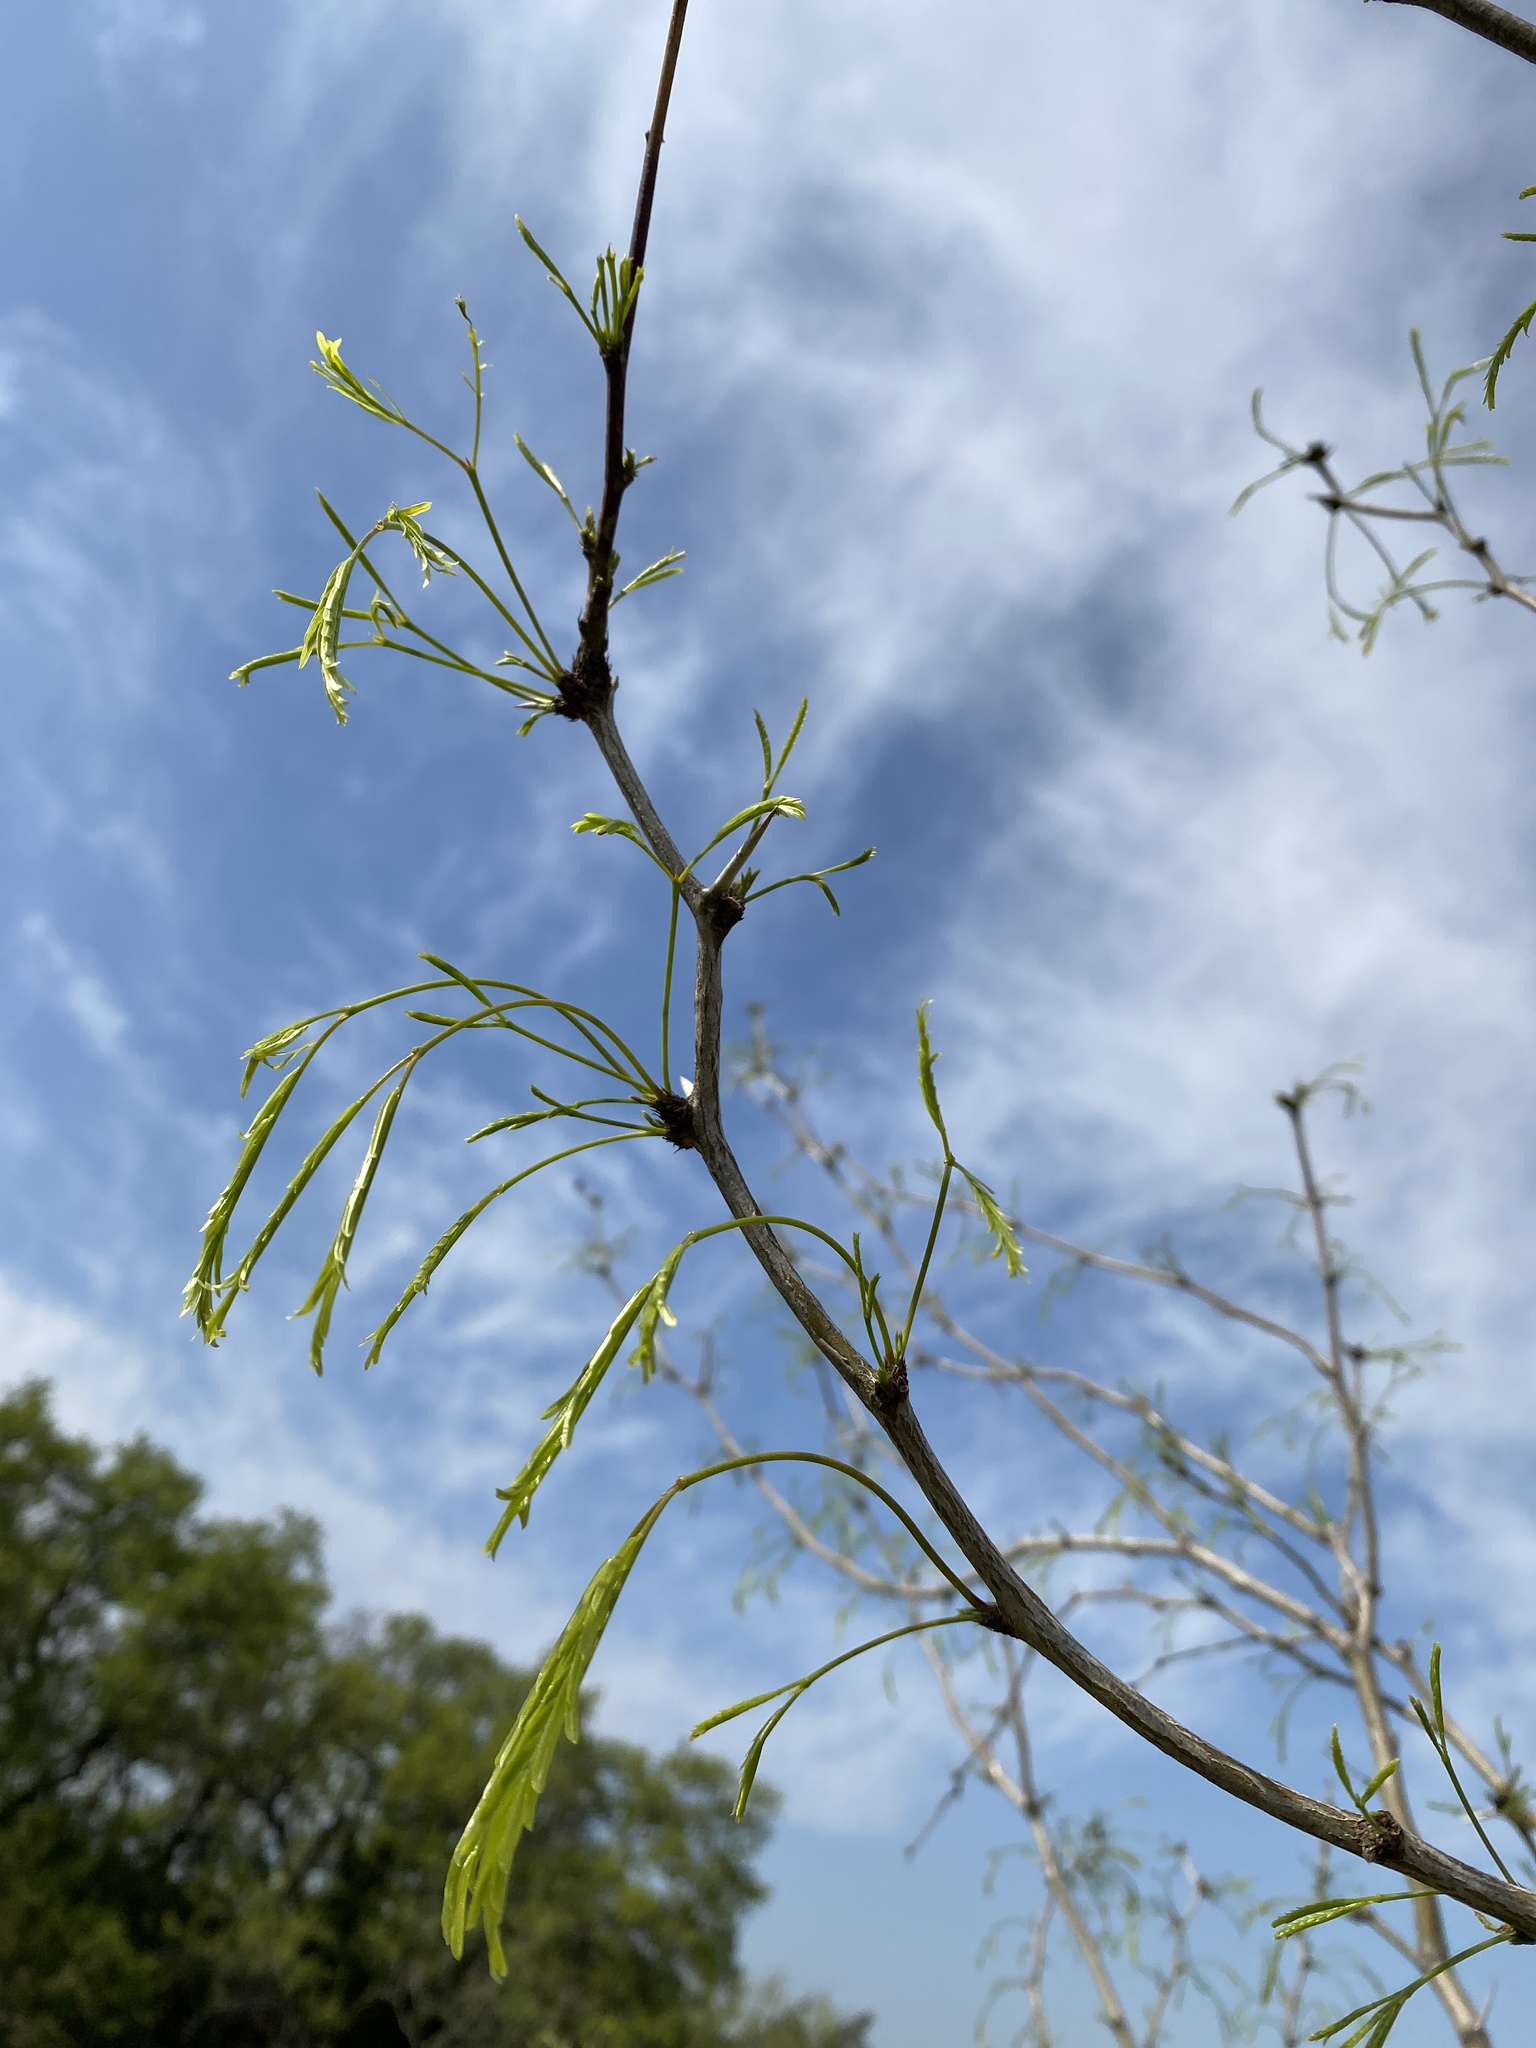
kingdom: Plantae
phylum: Tracheophyta
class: Magnoliopsida
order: Fabales
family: Fabaceae
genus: Prosopis
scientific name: Prosopis glandulosa
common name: Honey mesquite
